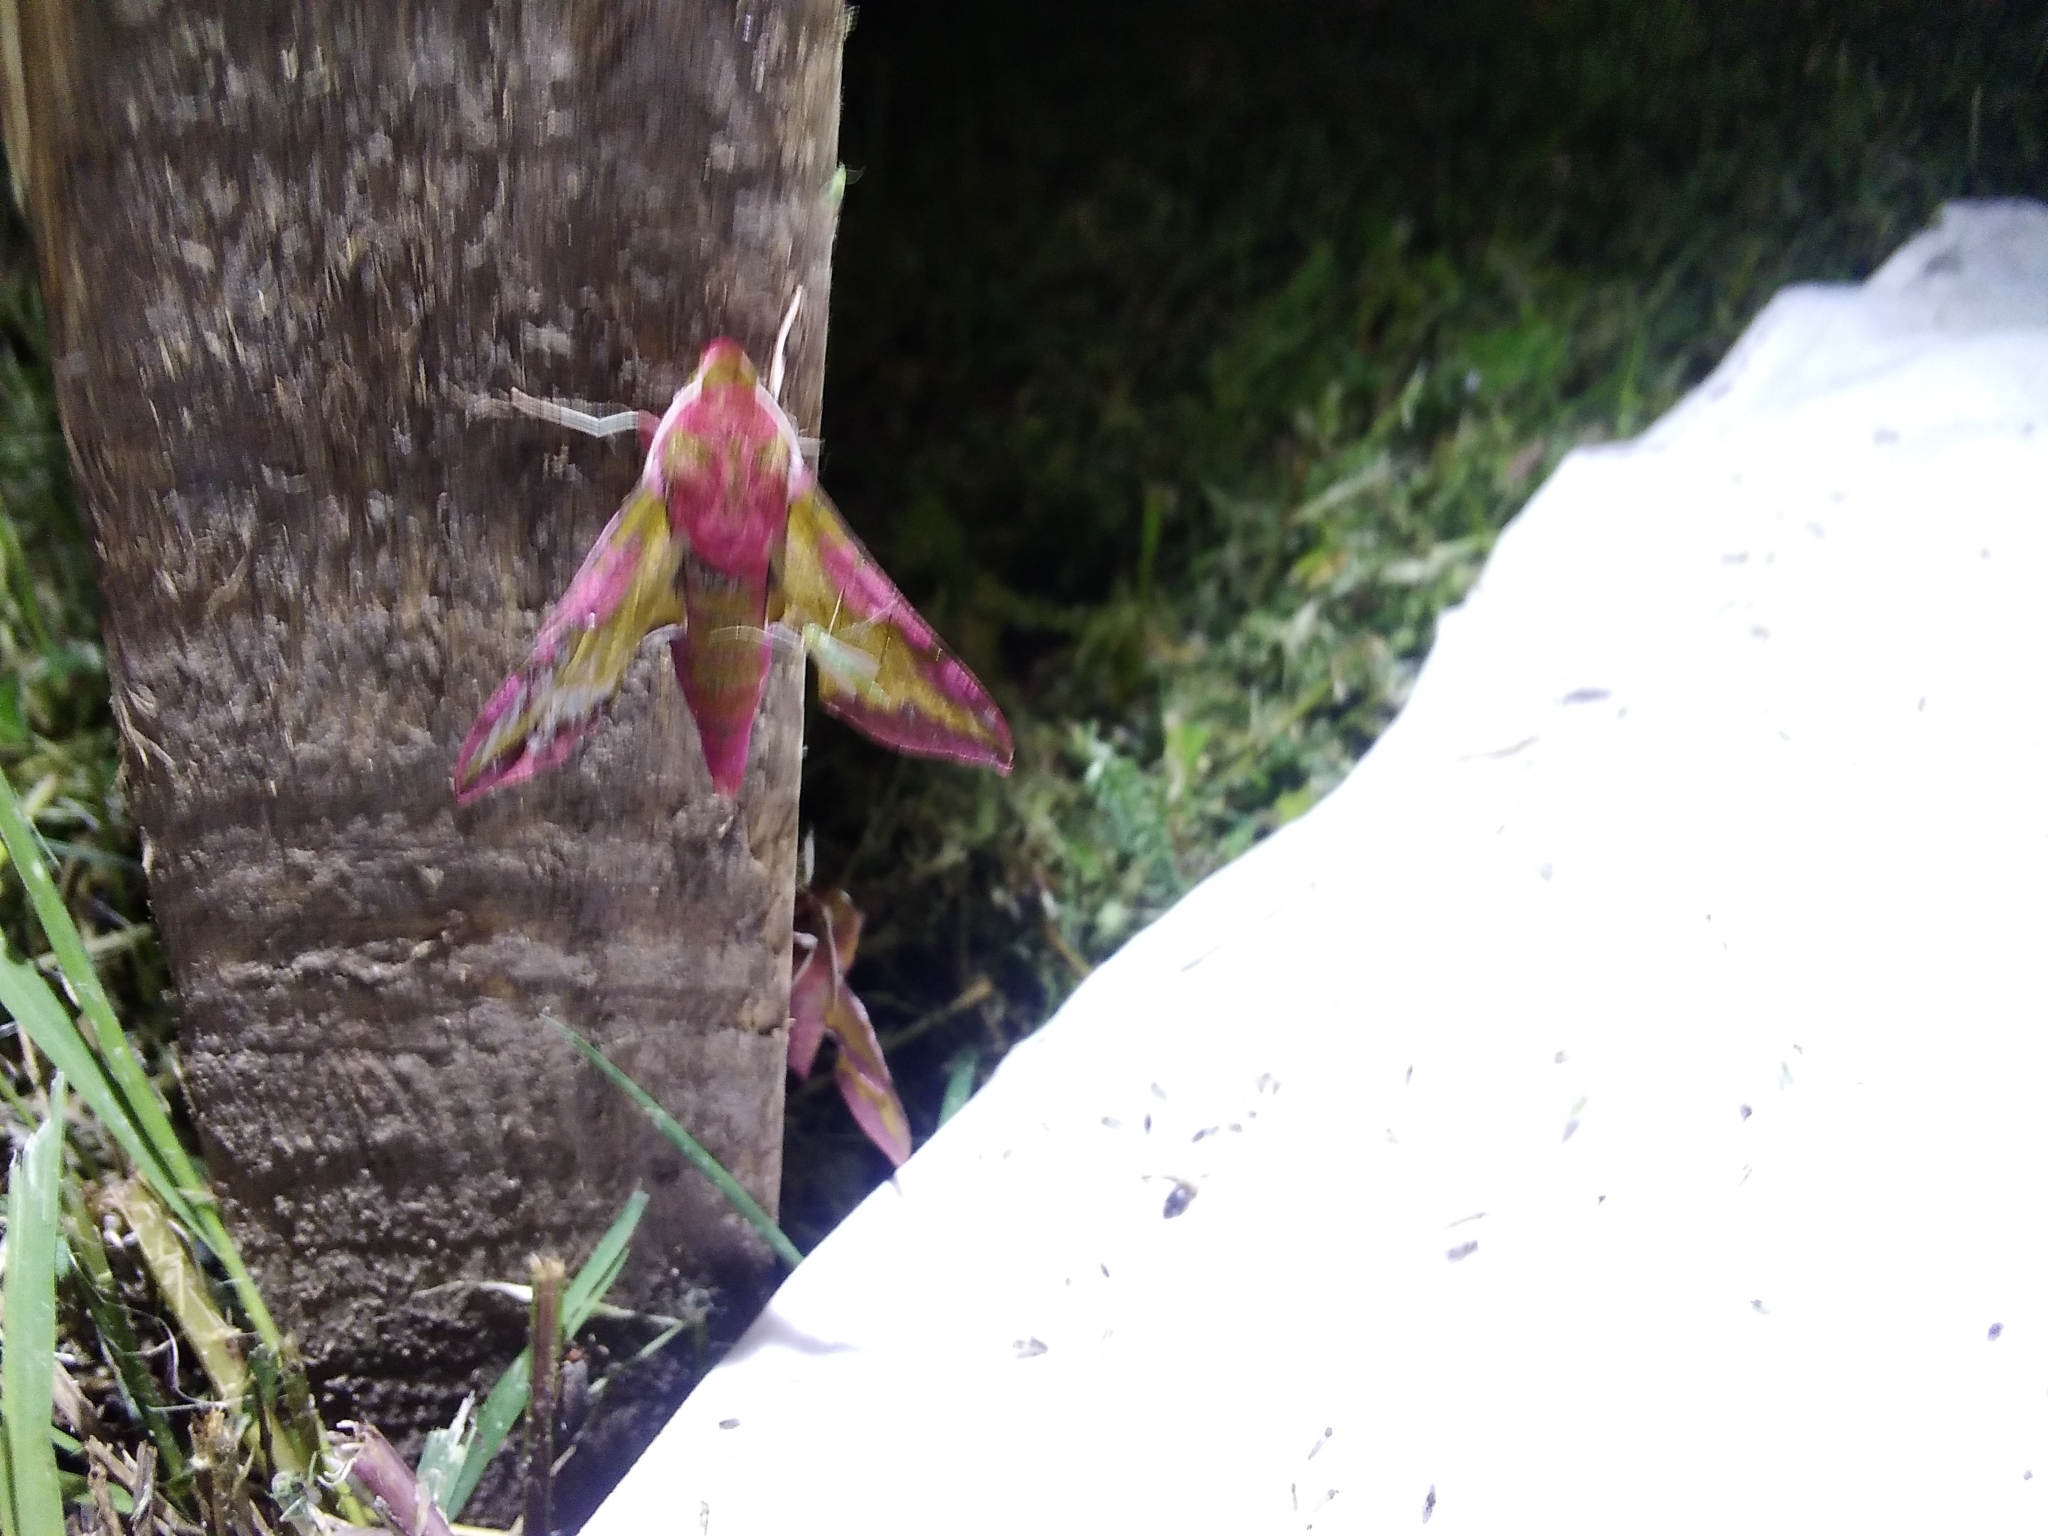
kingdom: Animalia
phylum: Arthropoda
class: Insecta
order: Lepidoptera
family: Sphingidae
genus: Deilephila
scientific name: Deilephila porcellus
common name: Small elephant hawk-moth
